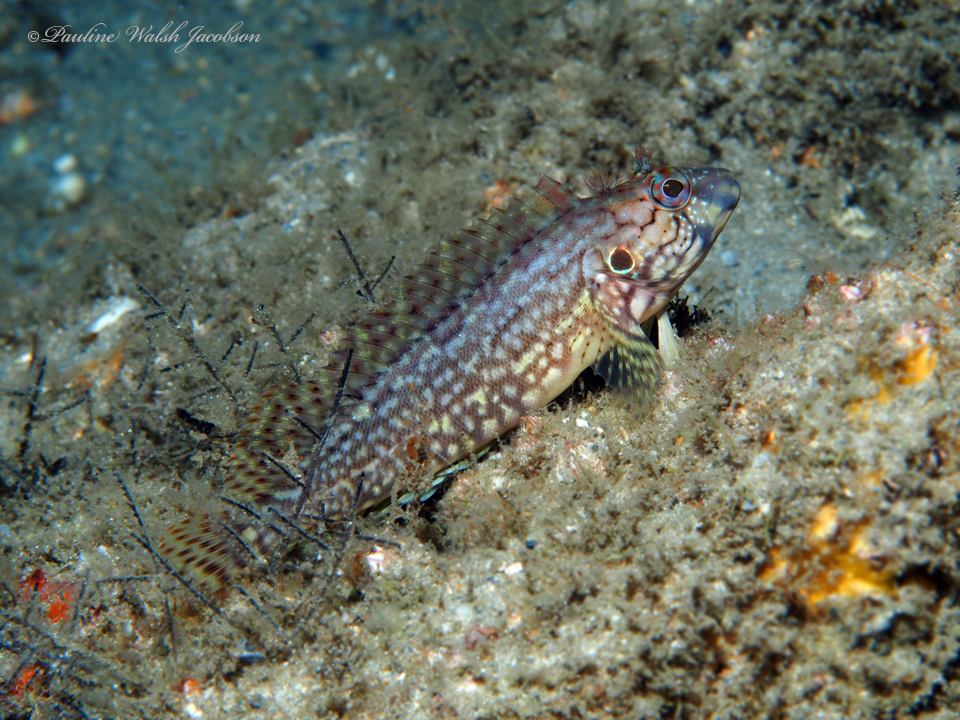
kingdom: Animalia
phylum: Chordata
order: Perciformes
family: Labrisomidae
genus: Labrisomus
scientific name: Labrisomus conditus
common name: Masquerader hairy blenny
